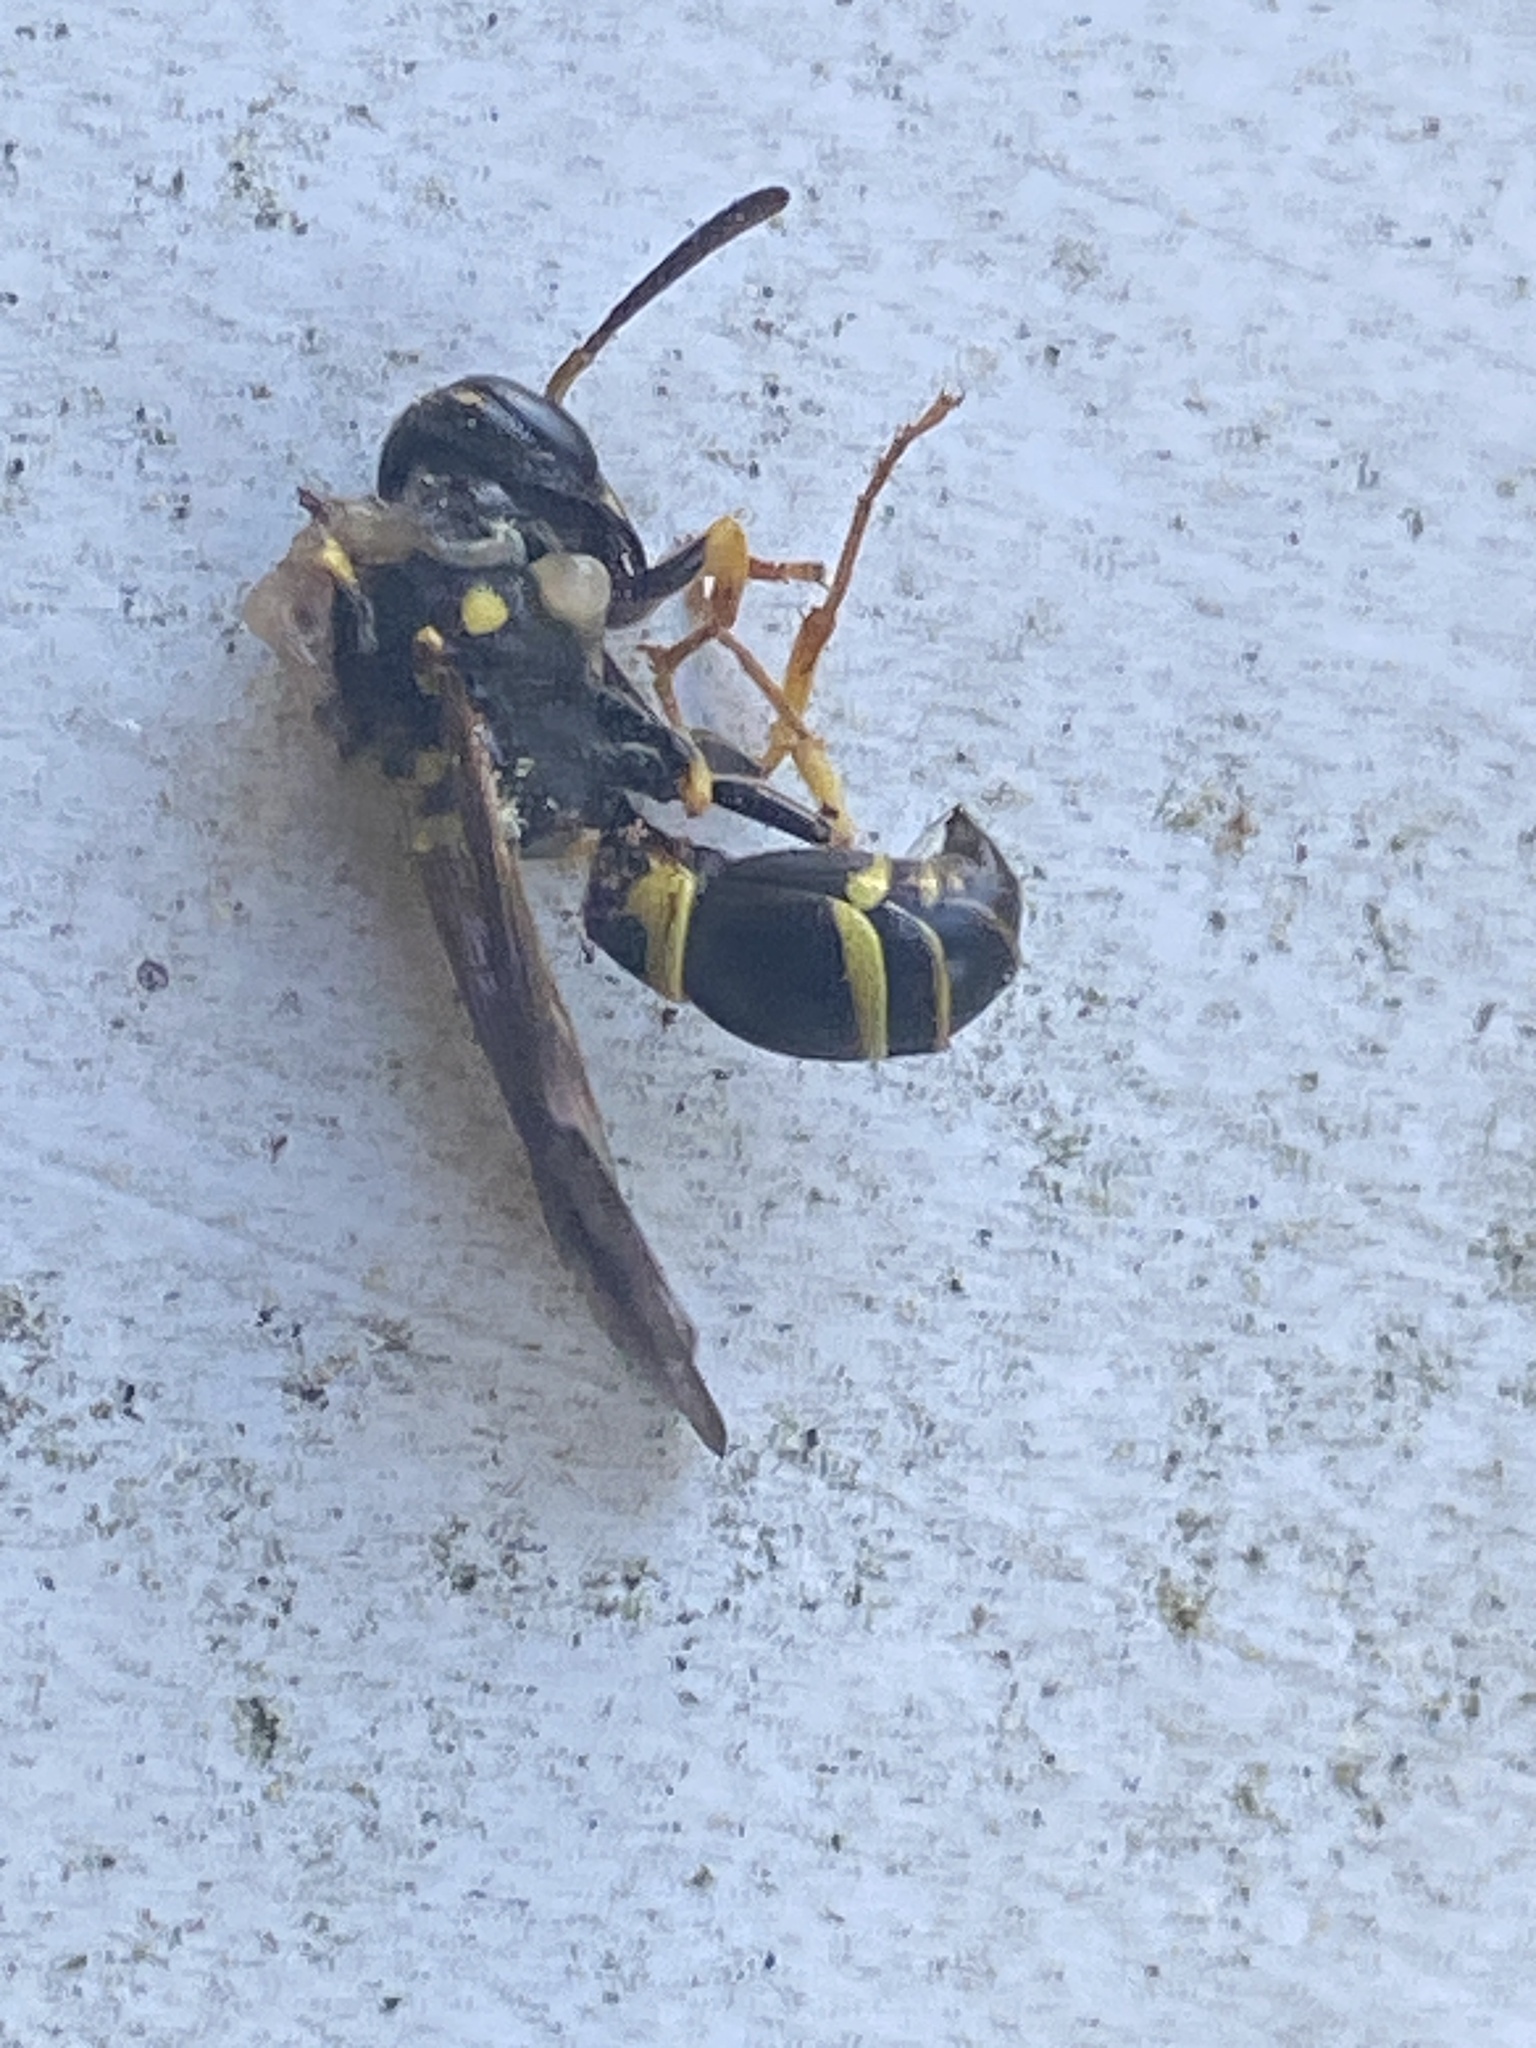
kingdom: Animalia
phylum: Arthropoda
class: Insecta
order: Hymenoptera
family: Vespidae
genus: Ancistrocerus
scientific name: Ancistrocerus adiabatus
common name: Bramble mason wasp
